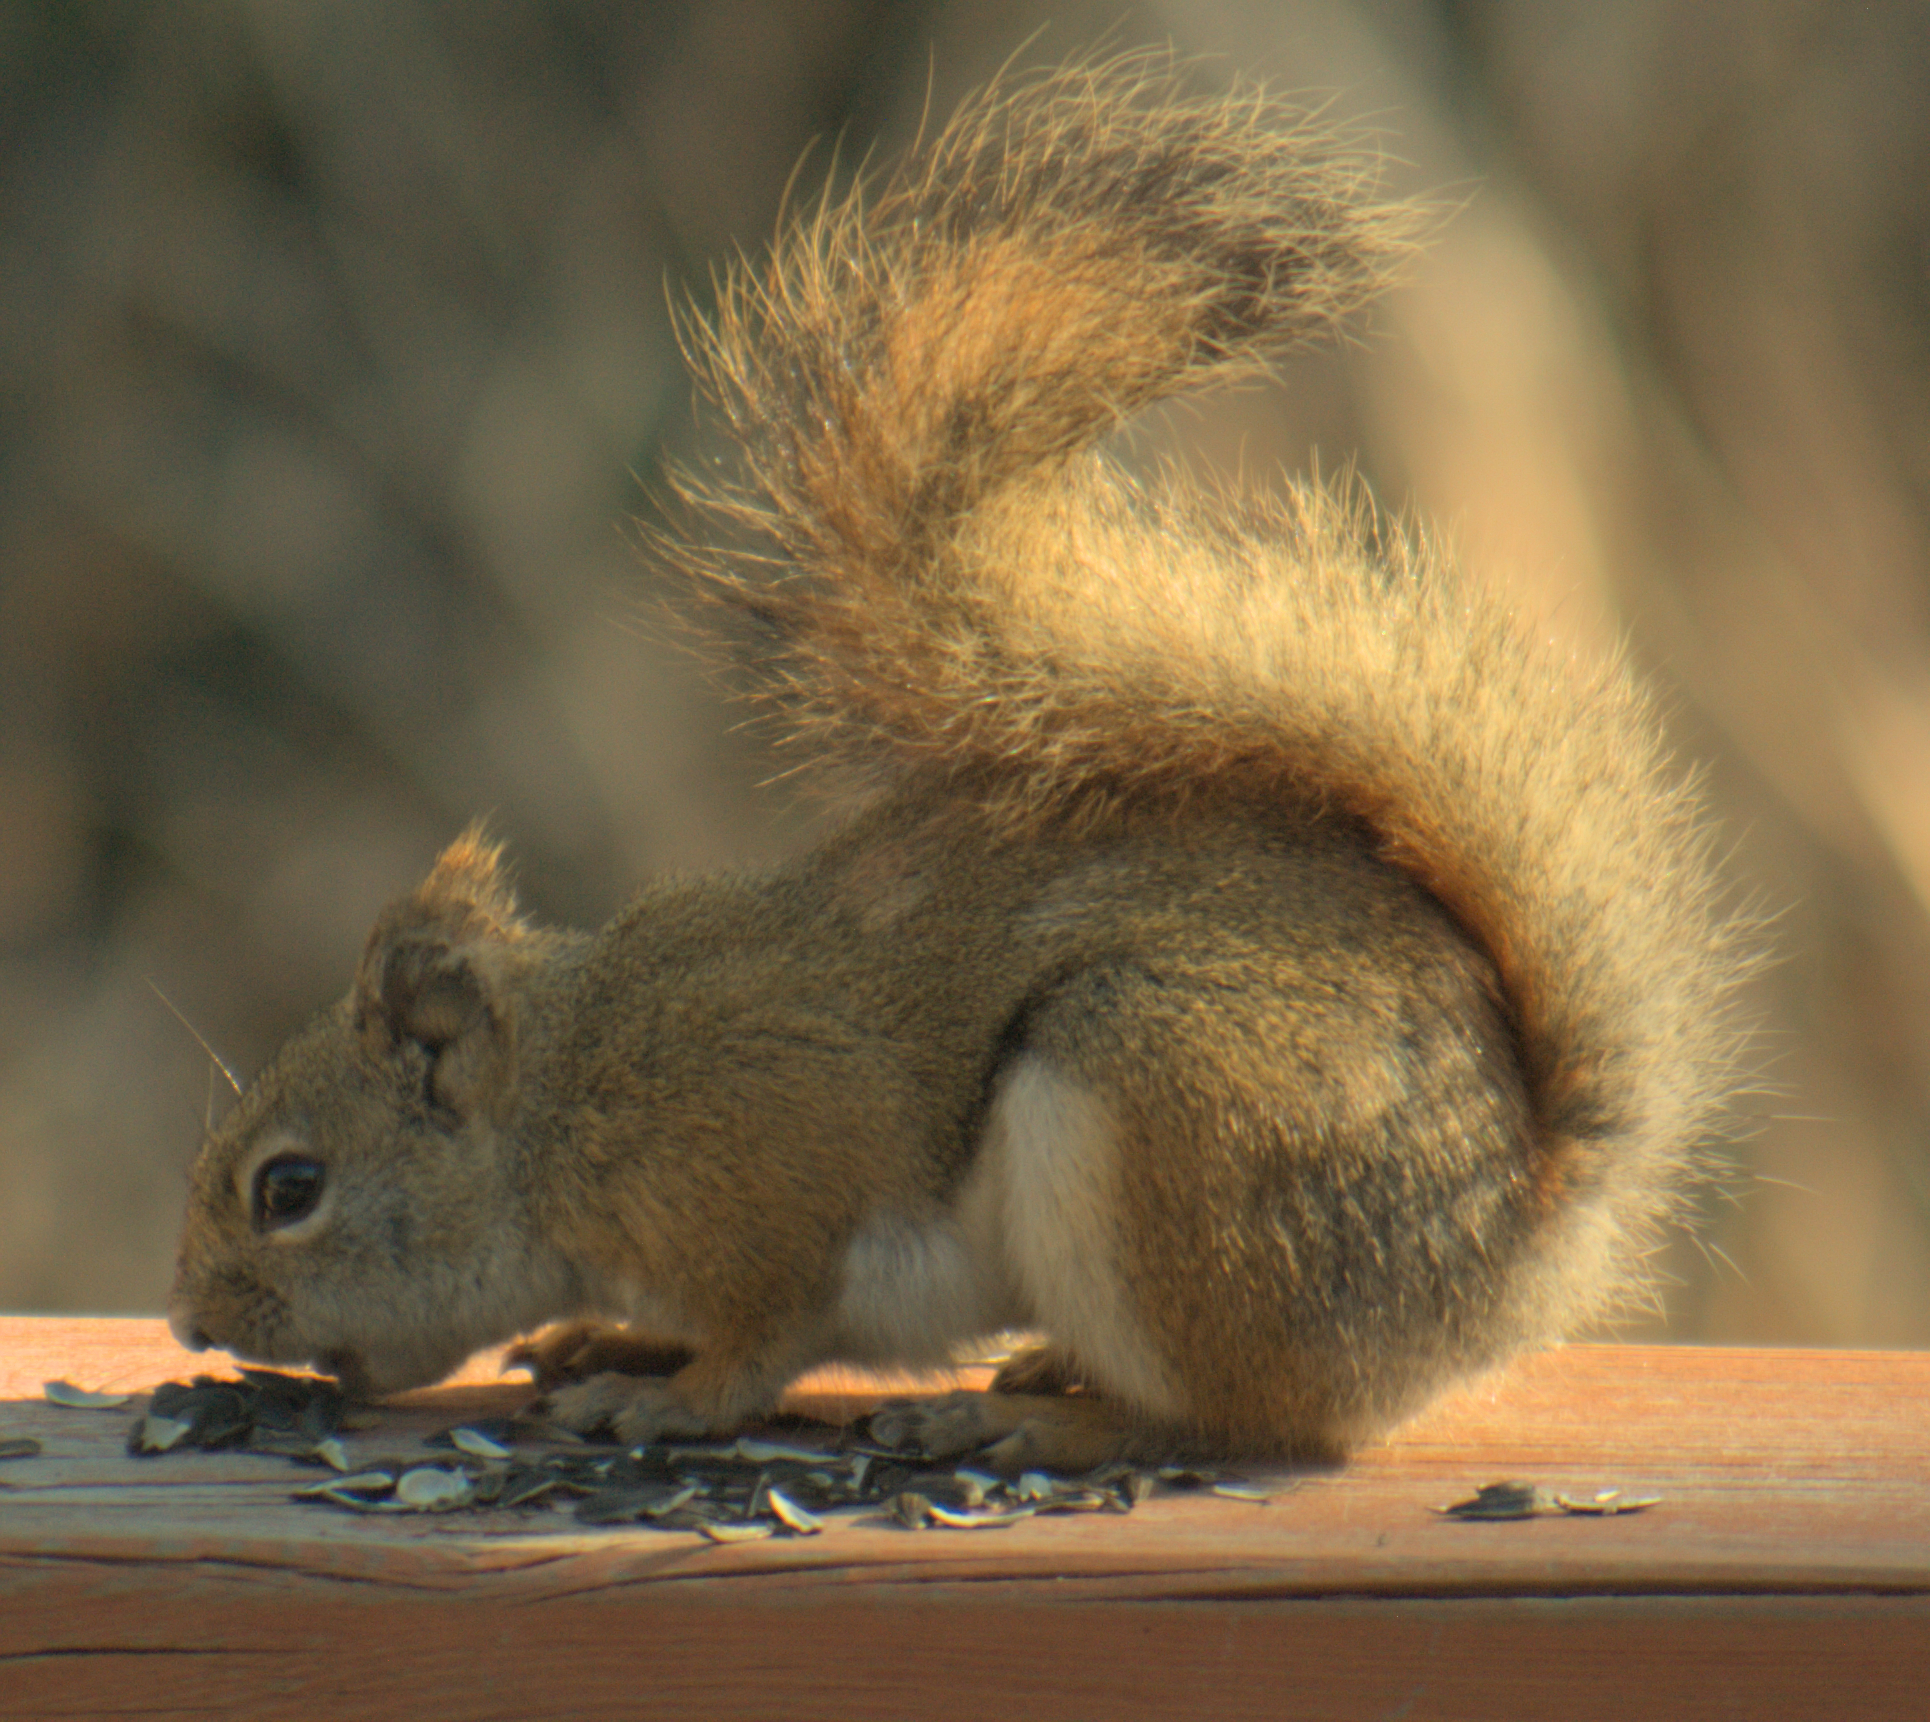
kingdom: Animalia
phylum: Chordata
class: Mammalia
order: Rodentia
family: Sciuridae
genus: Tamiasciurus
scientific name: Tamiasciurus hudsonicus
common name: Red squirrel
